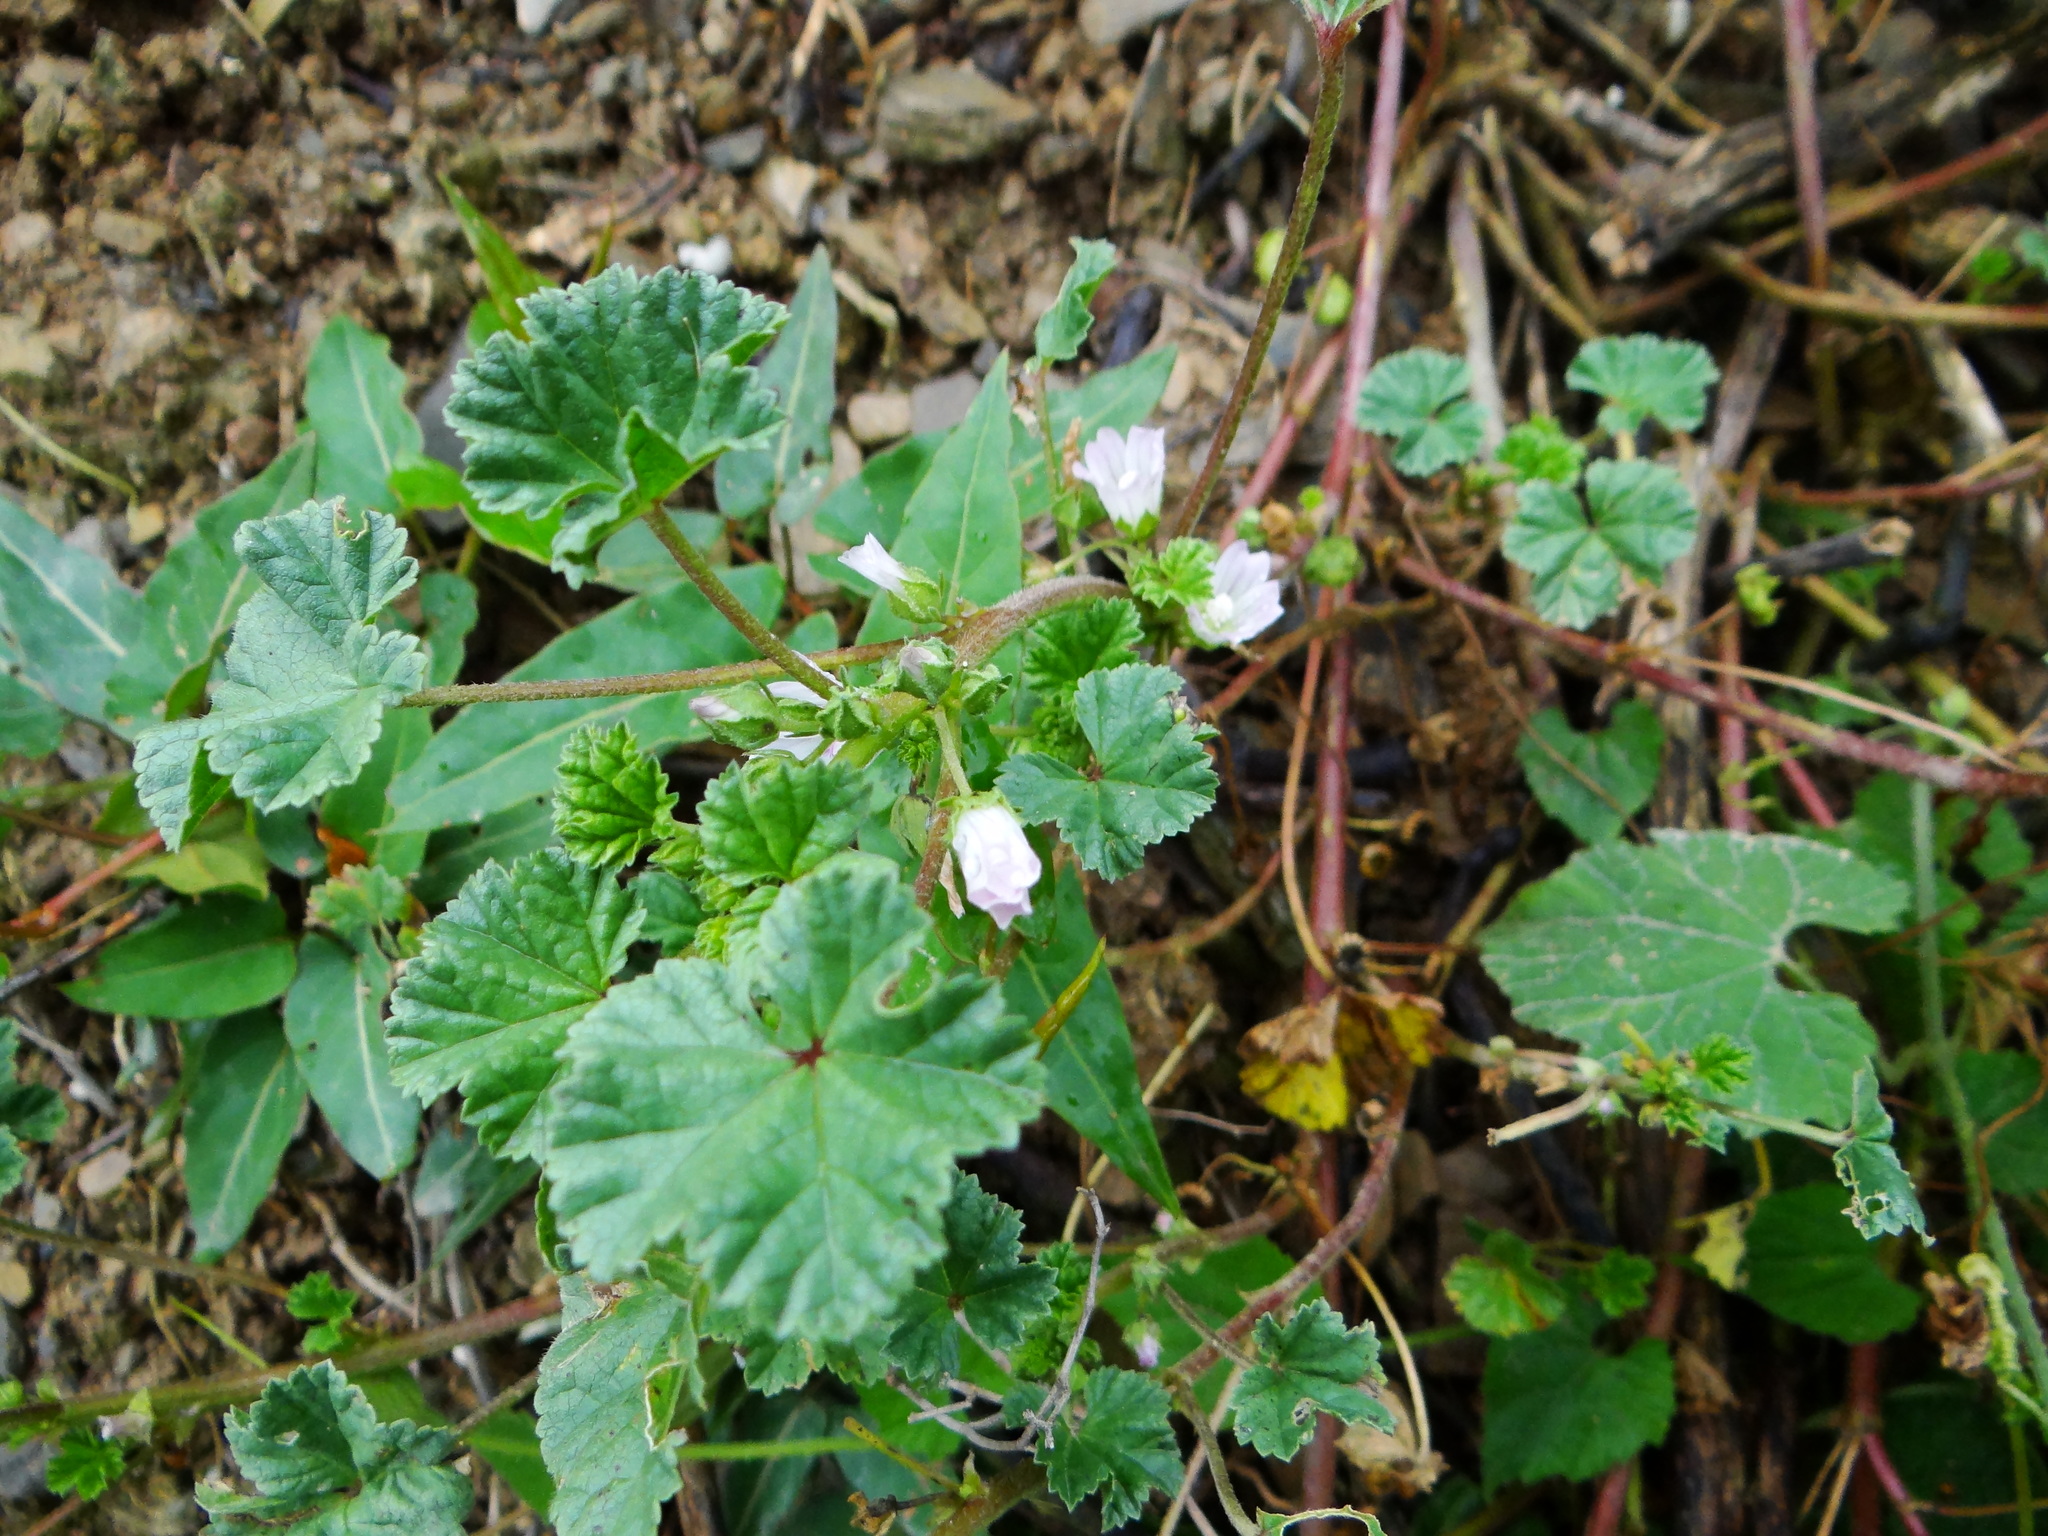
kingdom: Plantae
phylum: Tracheophyta
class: Magnoliopsida
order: Malvales
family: Malvaceae
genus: Malva
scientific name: Malva neglecta
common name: Common mallow
